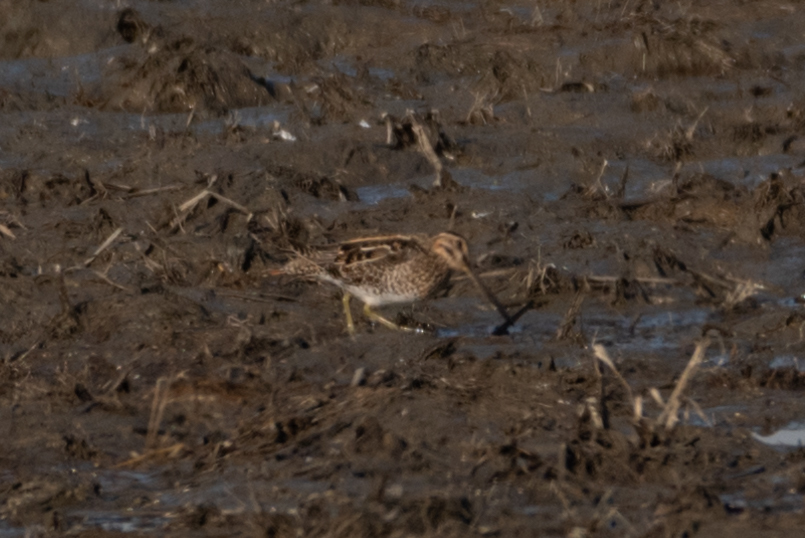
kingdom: Animalia
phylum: Chordata
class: Aves
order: Charadriiformes
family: Scolopacidae
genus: Gallinago
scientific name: Gallinago delicata
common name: Wilson's snipe
